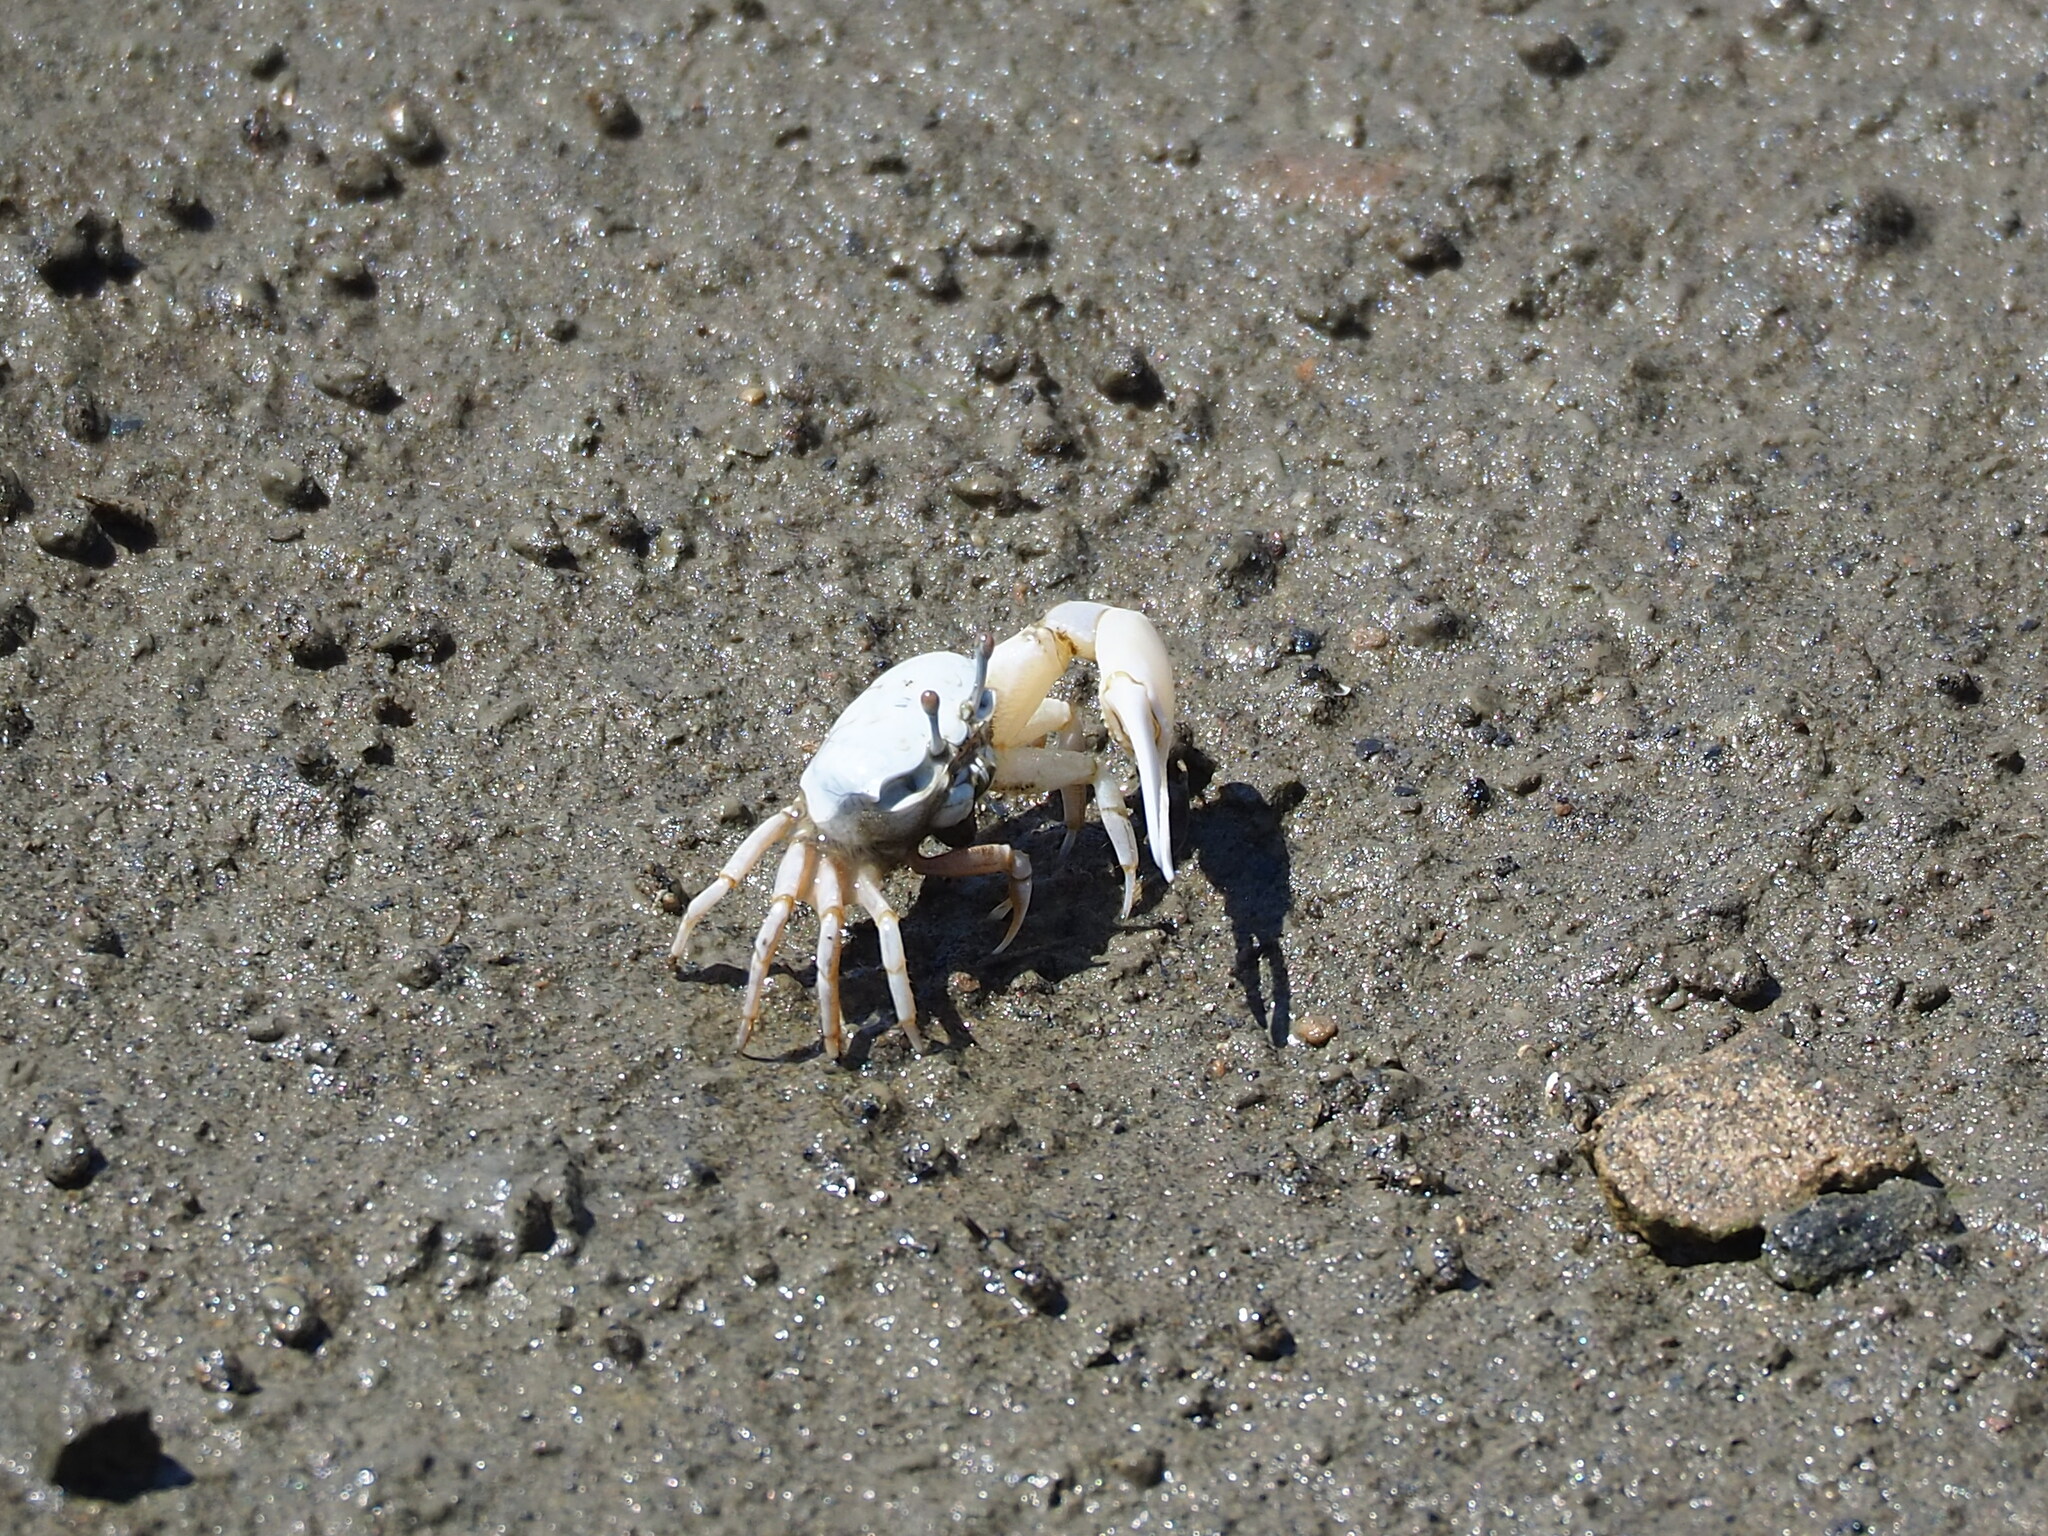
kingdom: Animalia
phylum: Arthropoda
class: Malacostraca
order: Decapoda
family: Ocypodidae
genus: Austruca
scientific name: Austruca lactea
